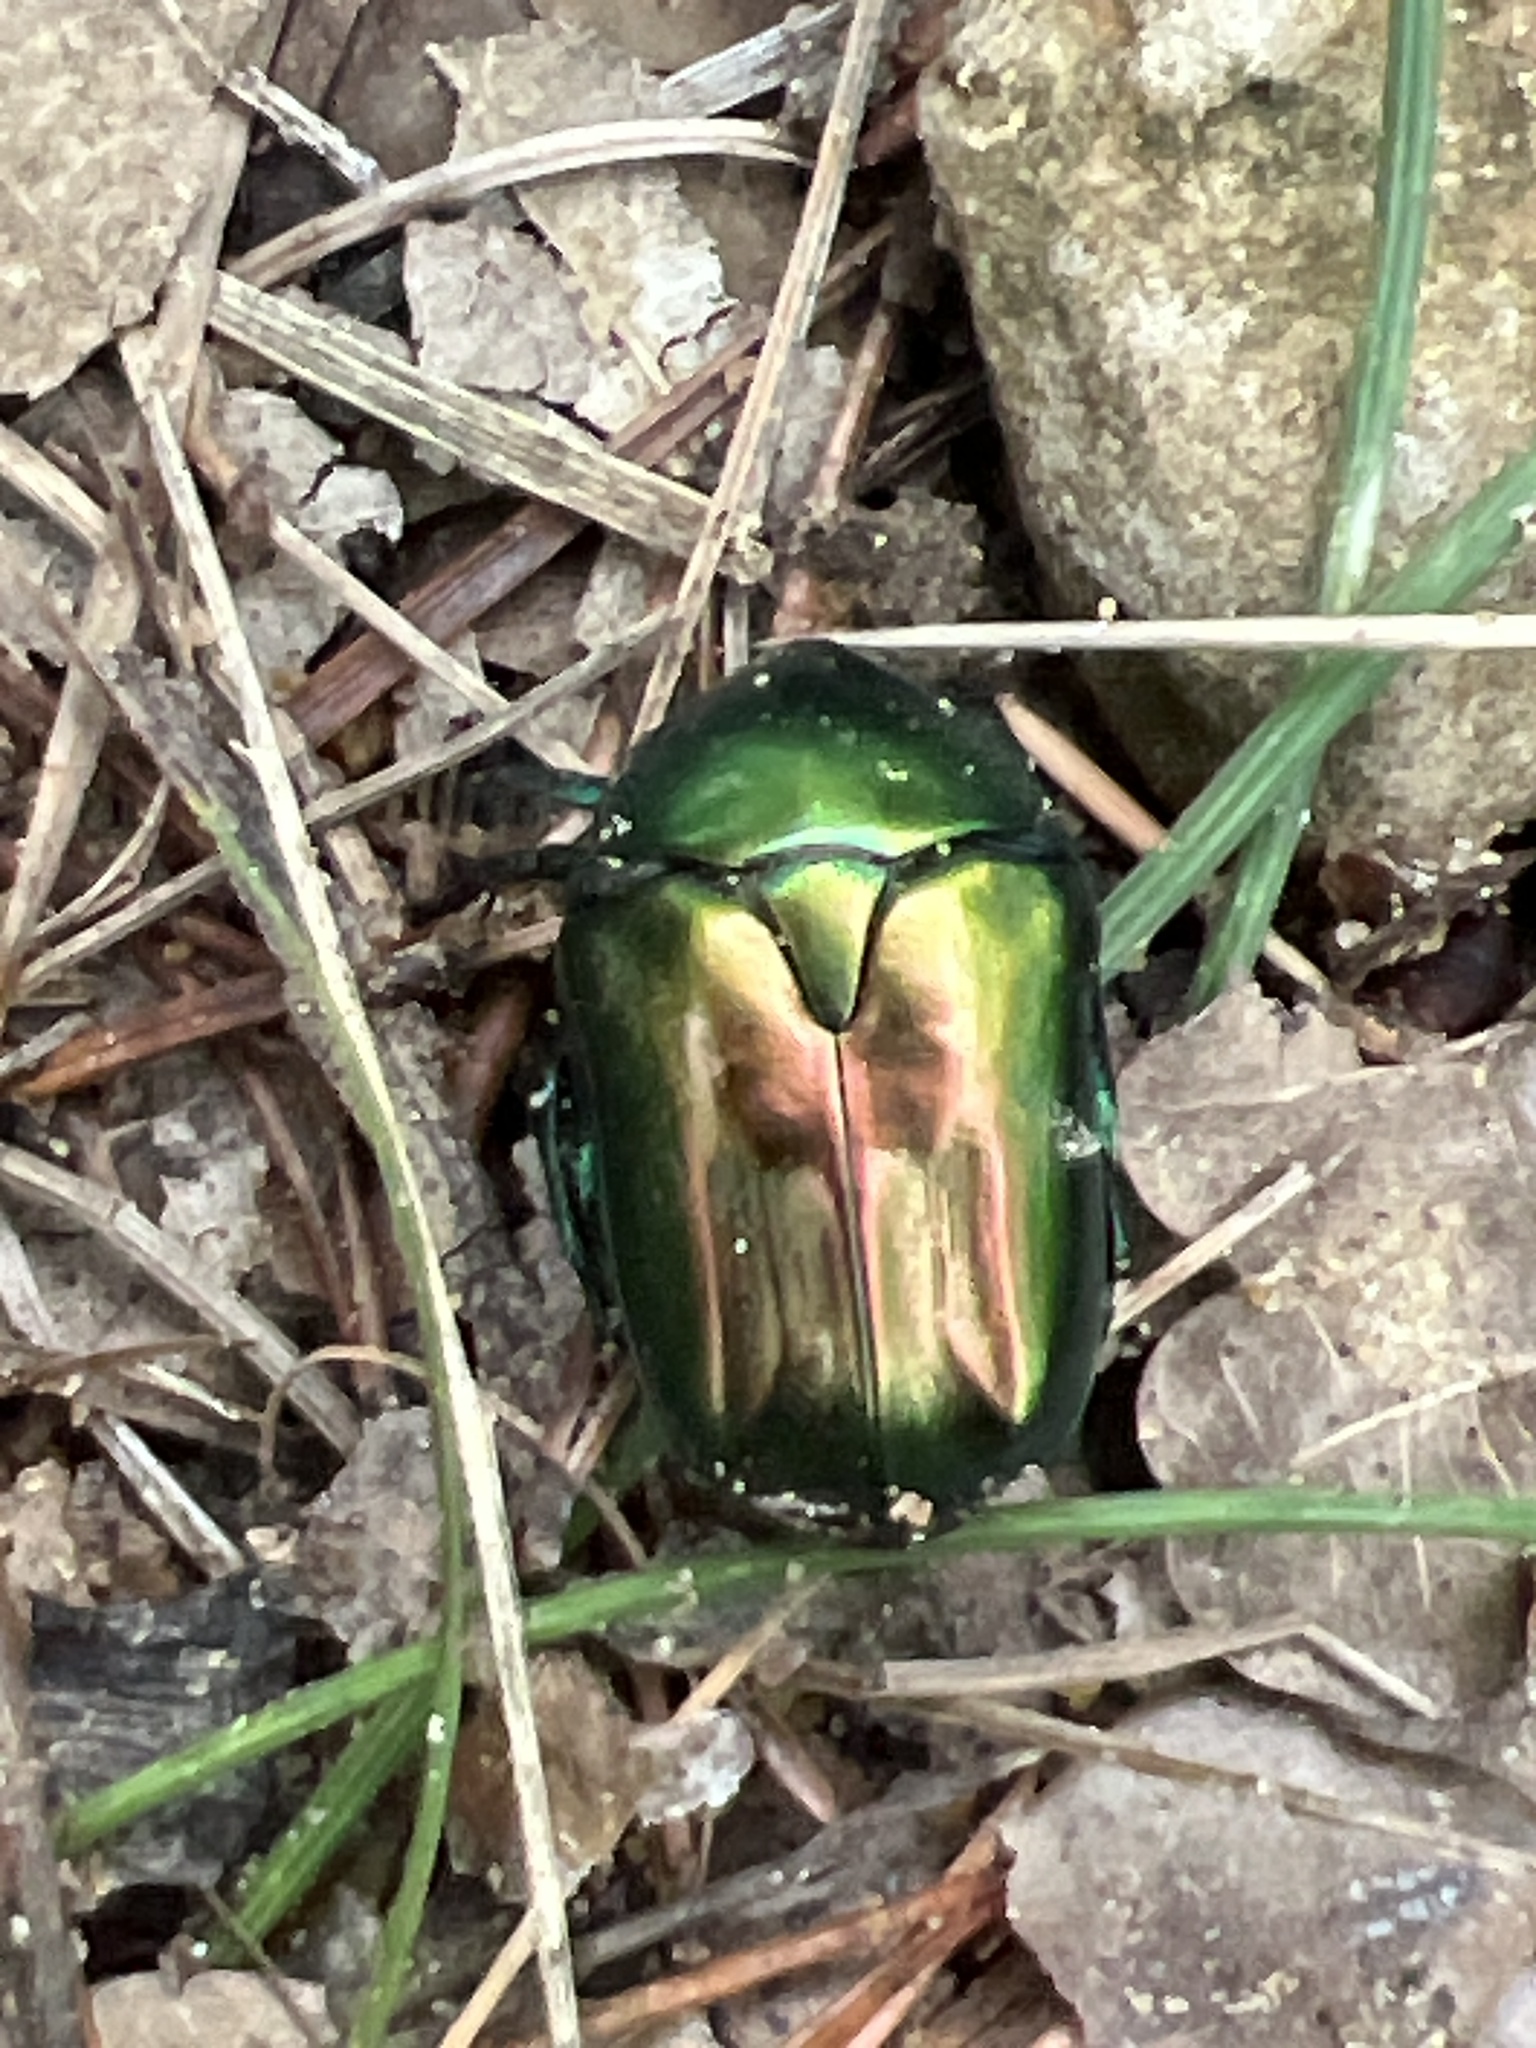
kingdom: Animalia
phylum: Arthropoda
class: Insecta
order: Coleoptera
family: Scarabaeidae
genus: Protaetia
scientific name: Protaetia speciosissima
